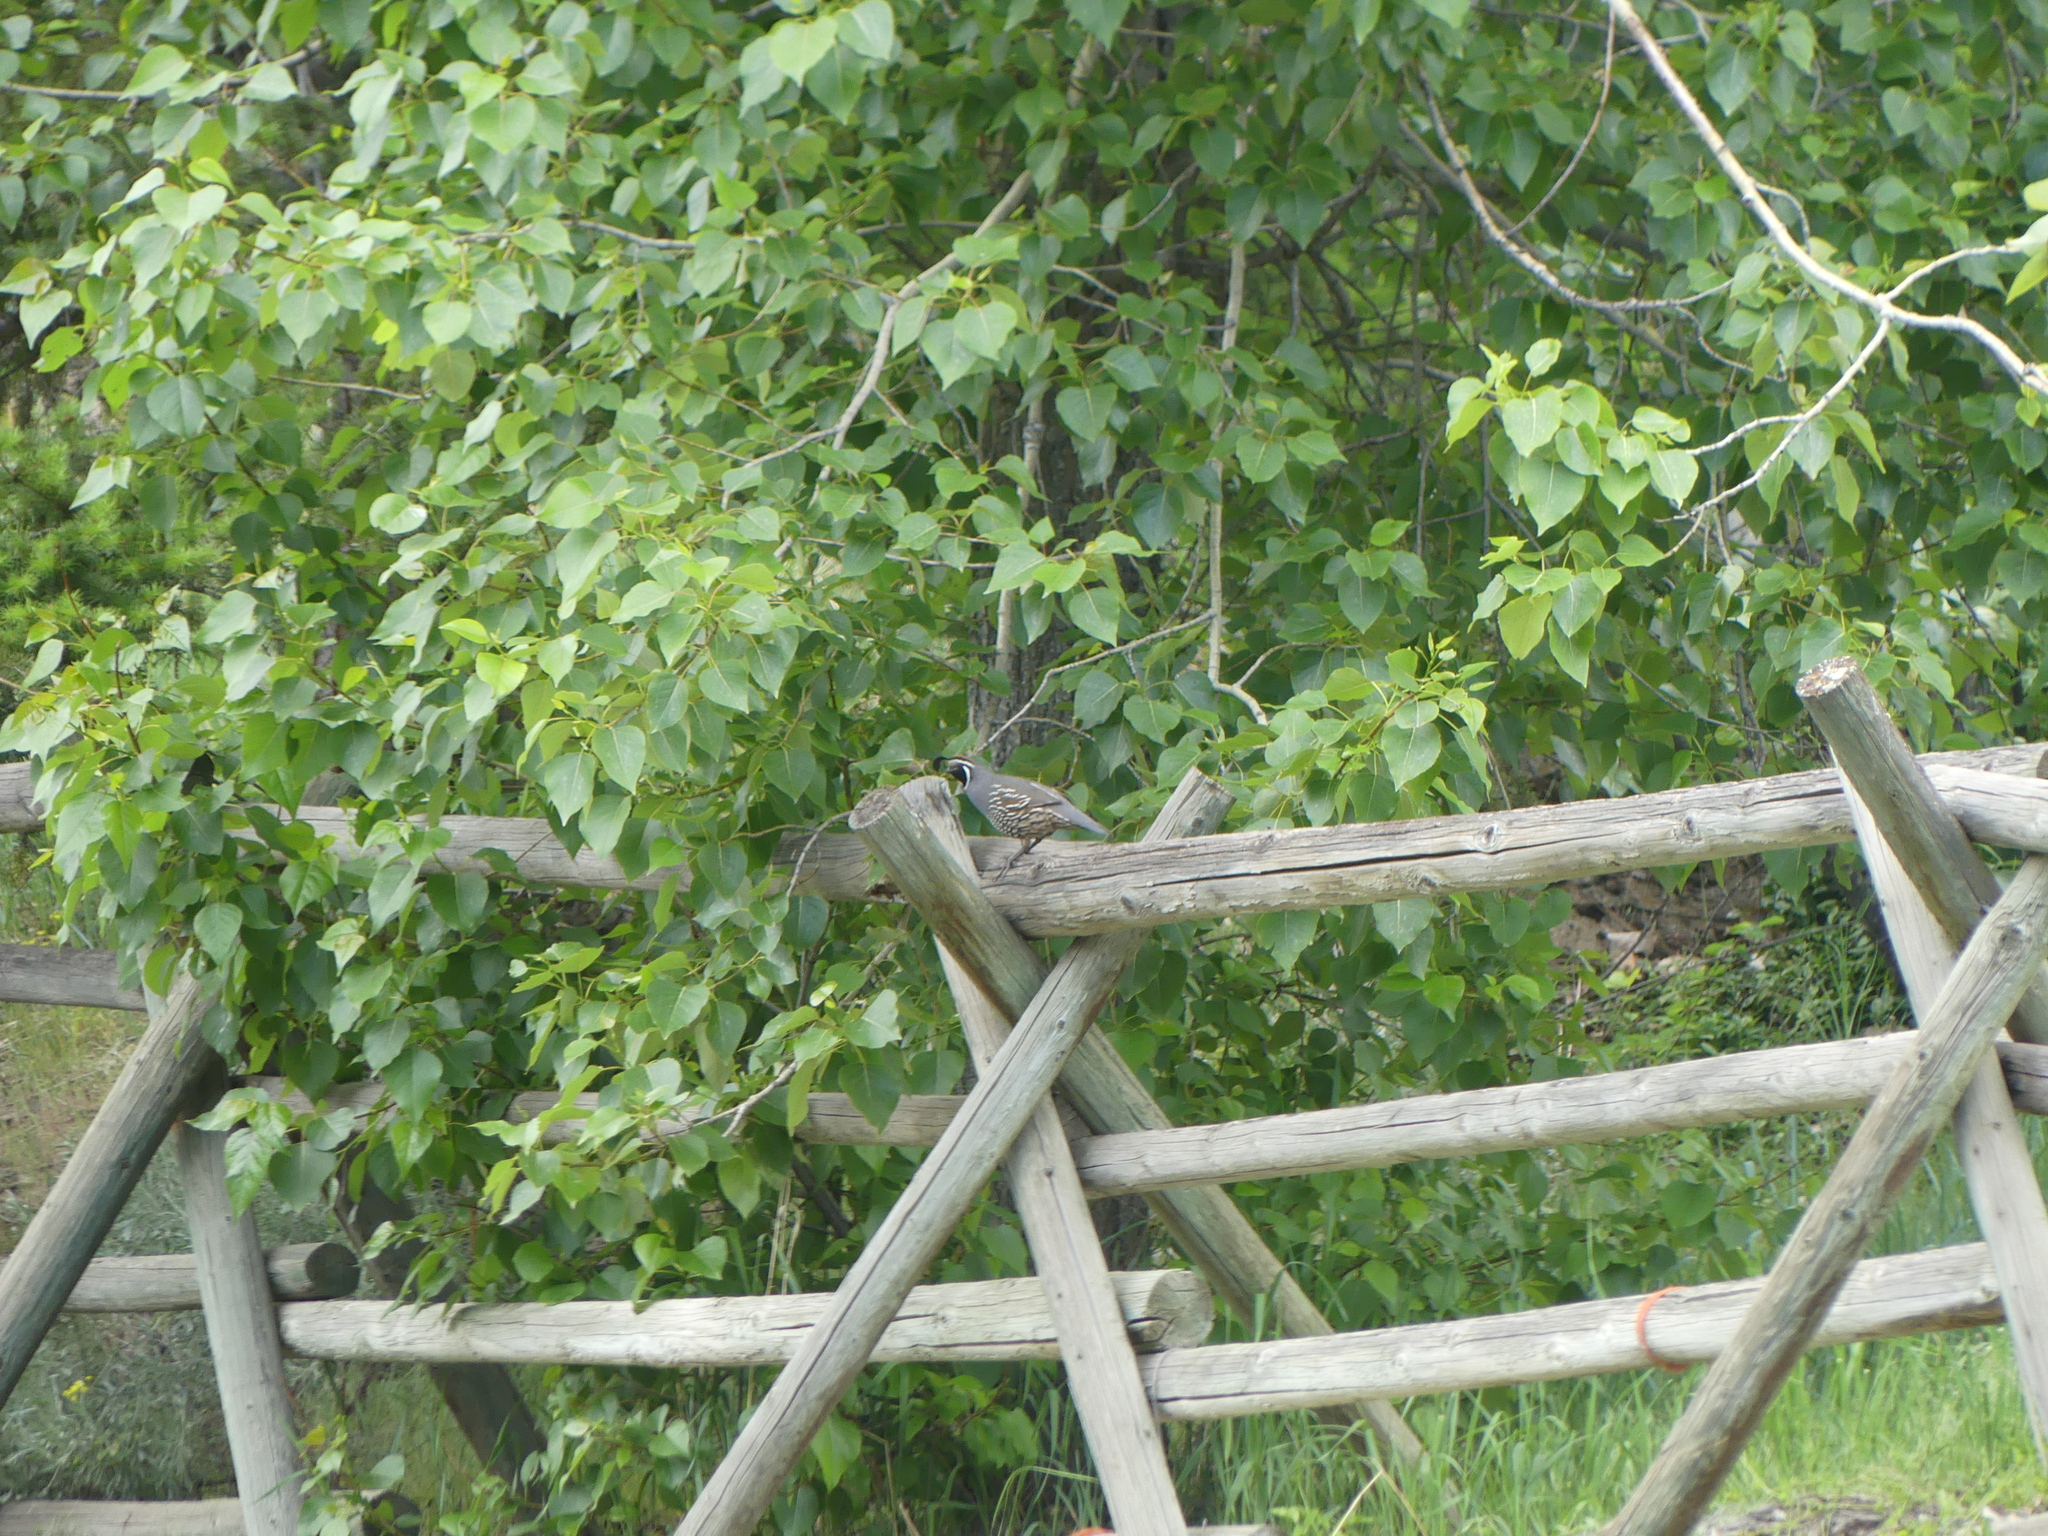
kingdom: Animalia
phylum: Chordata
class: Aves
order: Galliformes
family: Odontophoridae
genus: Callipepla
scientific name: Callipepla californica
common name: California quail
